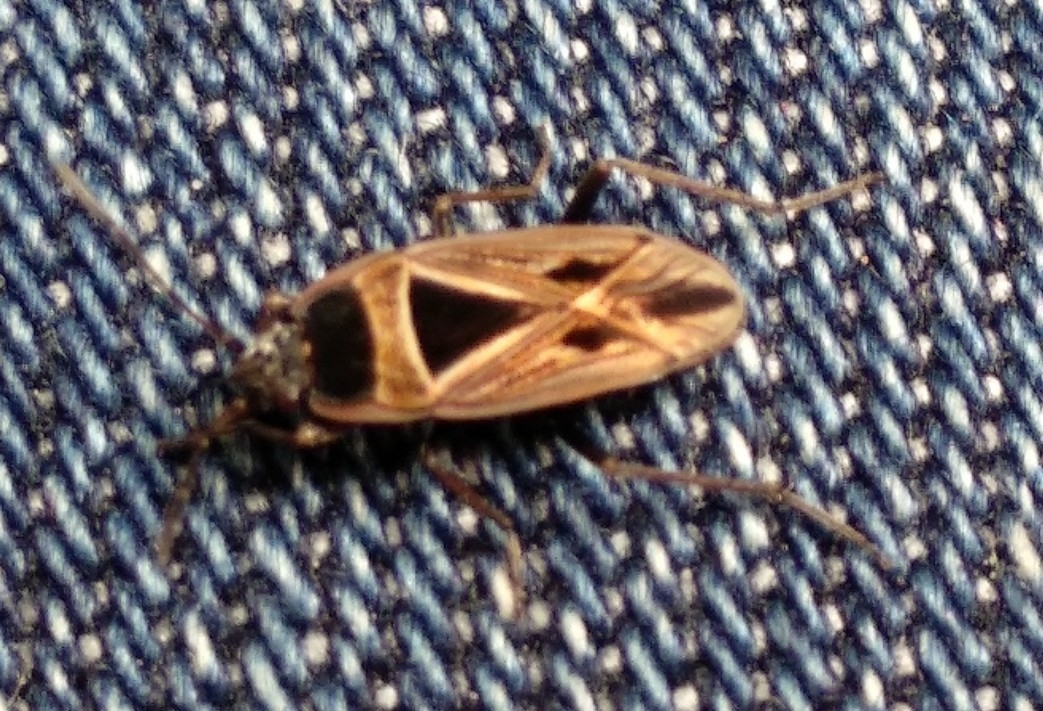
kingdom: Animalia
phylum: Arthropoda
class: Insecta
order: Hemiptera
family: Rhyparochromidae
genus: Xanthochilus
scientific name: Xanthochilus saturnius
